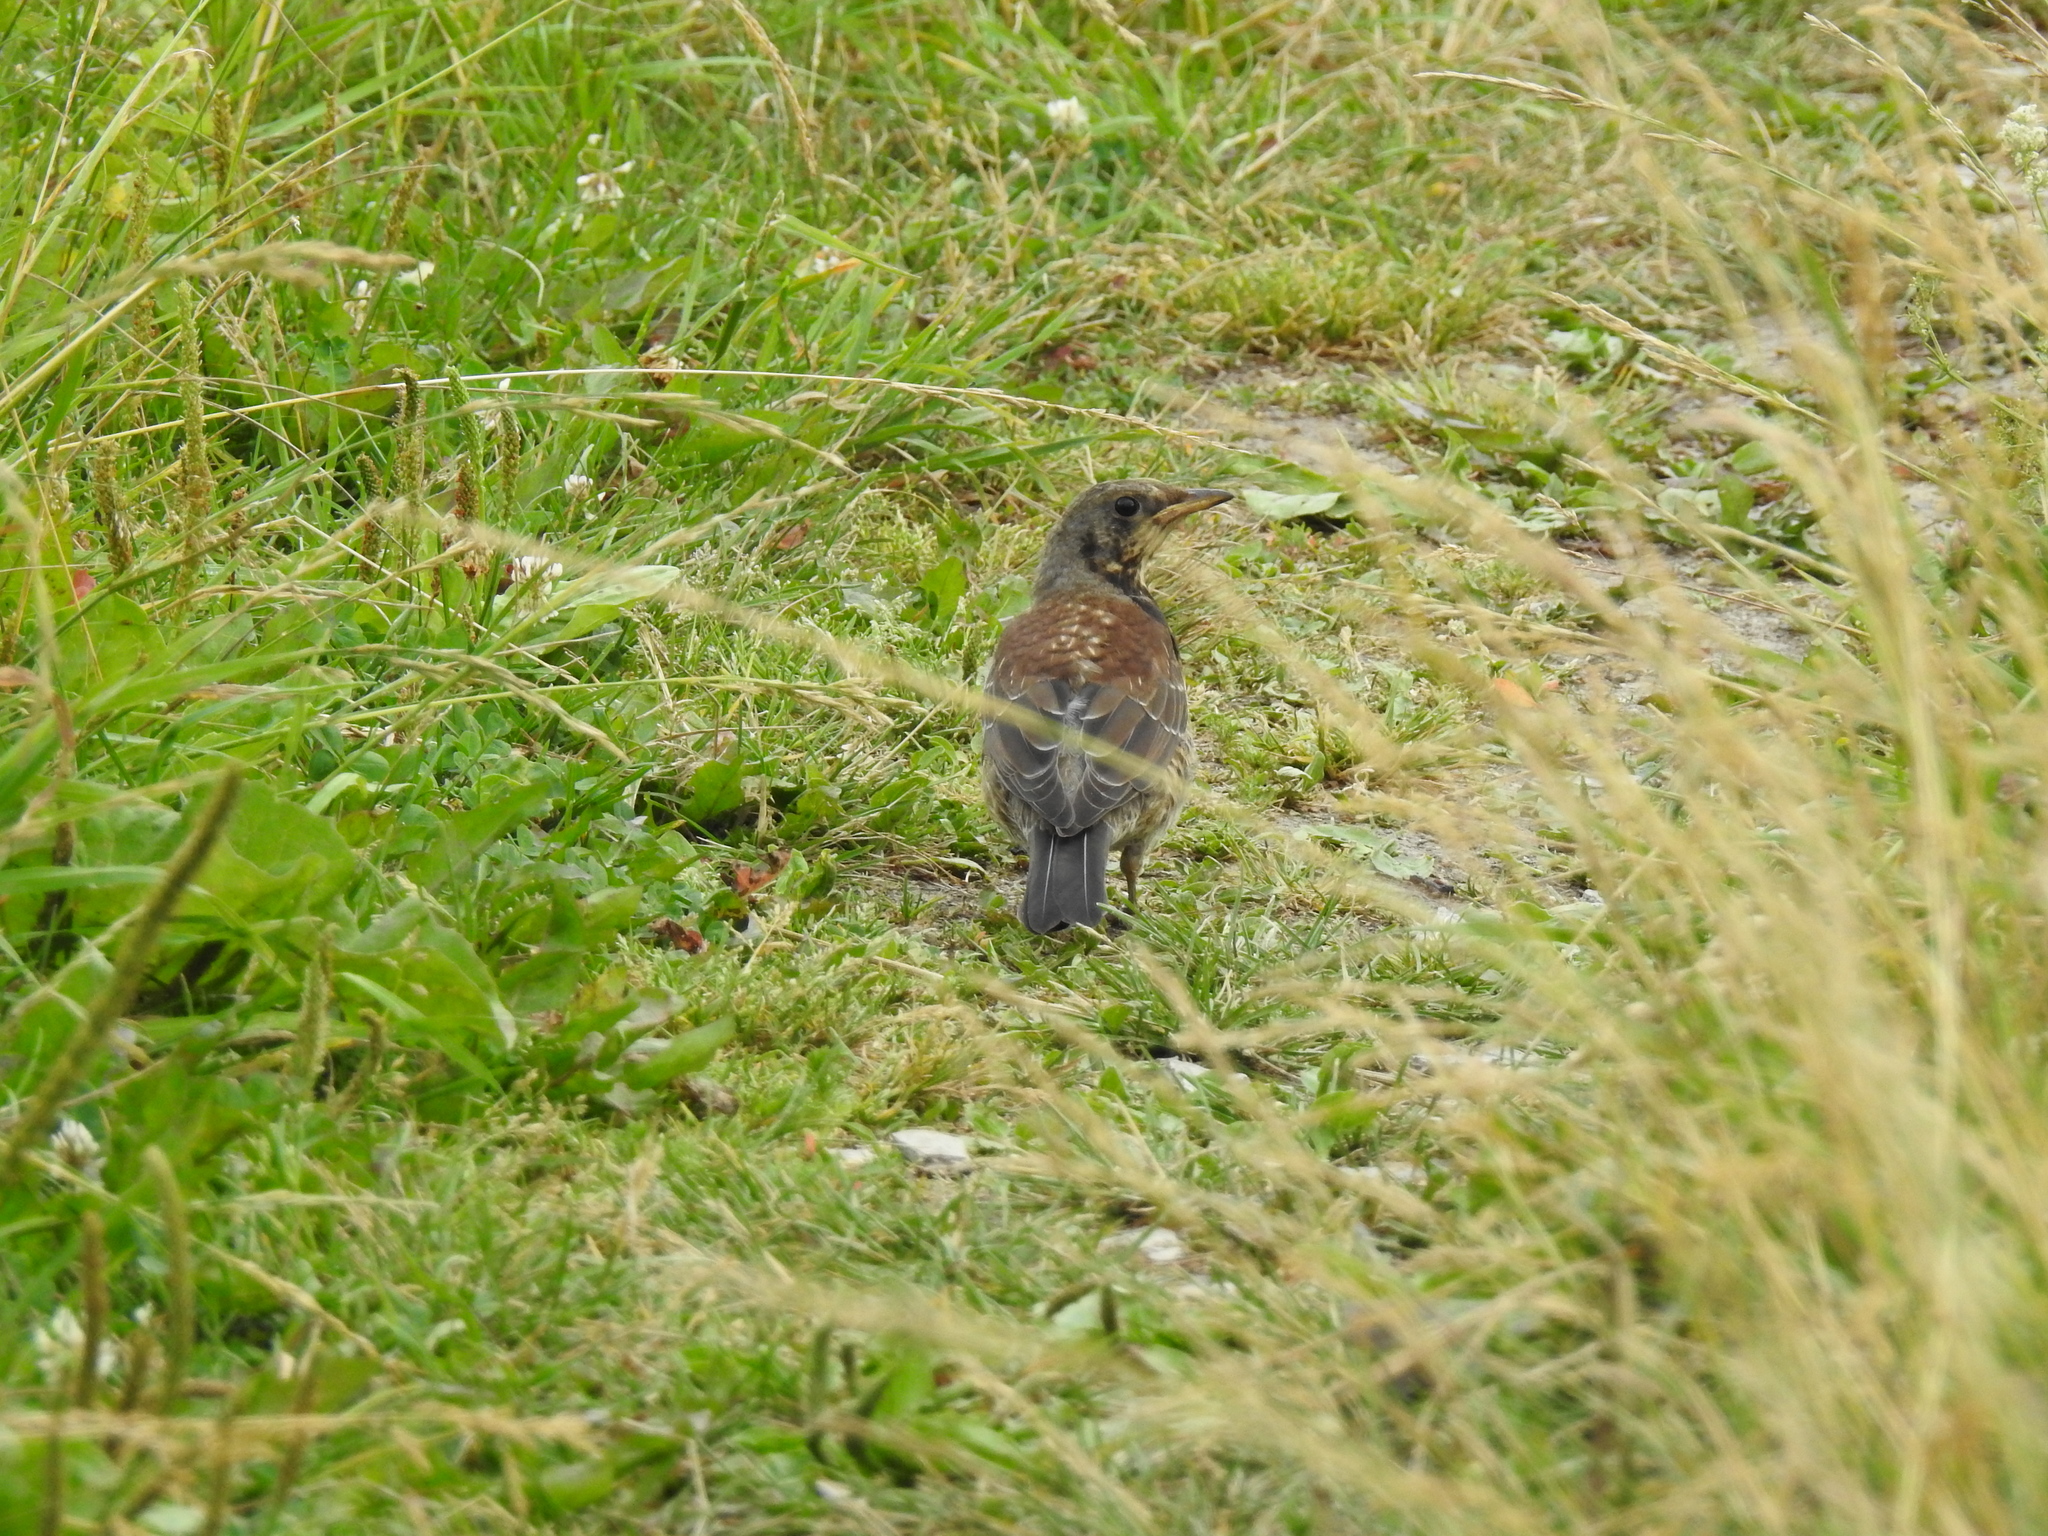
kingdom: Animalia
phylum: Chordata
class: Aves
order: Passeriformes
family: Turdidae
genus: Turdus
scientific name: Turdus pilaris
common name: Fieldfare
